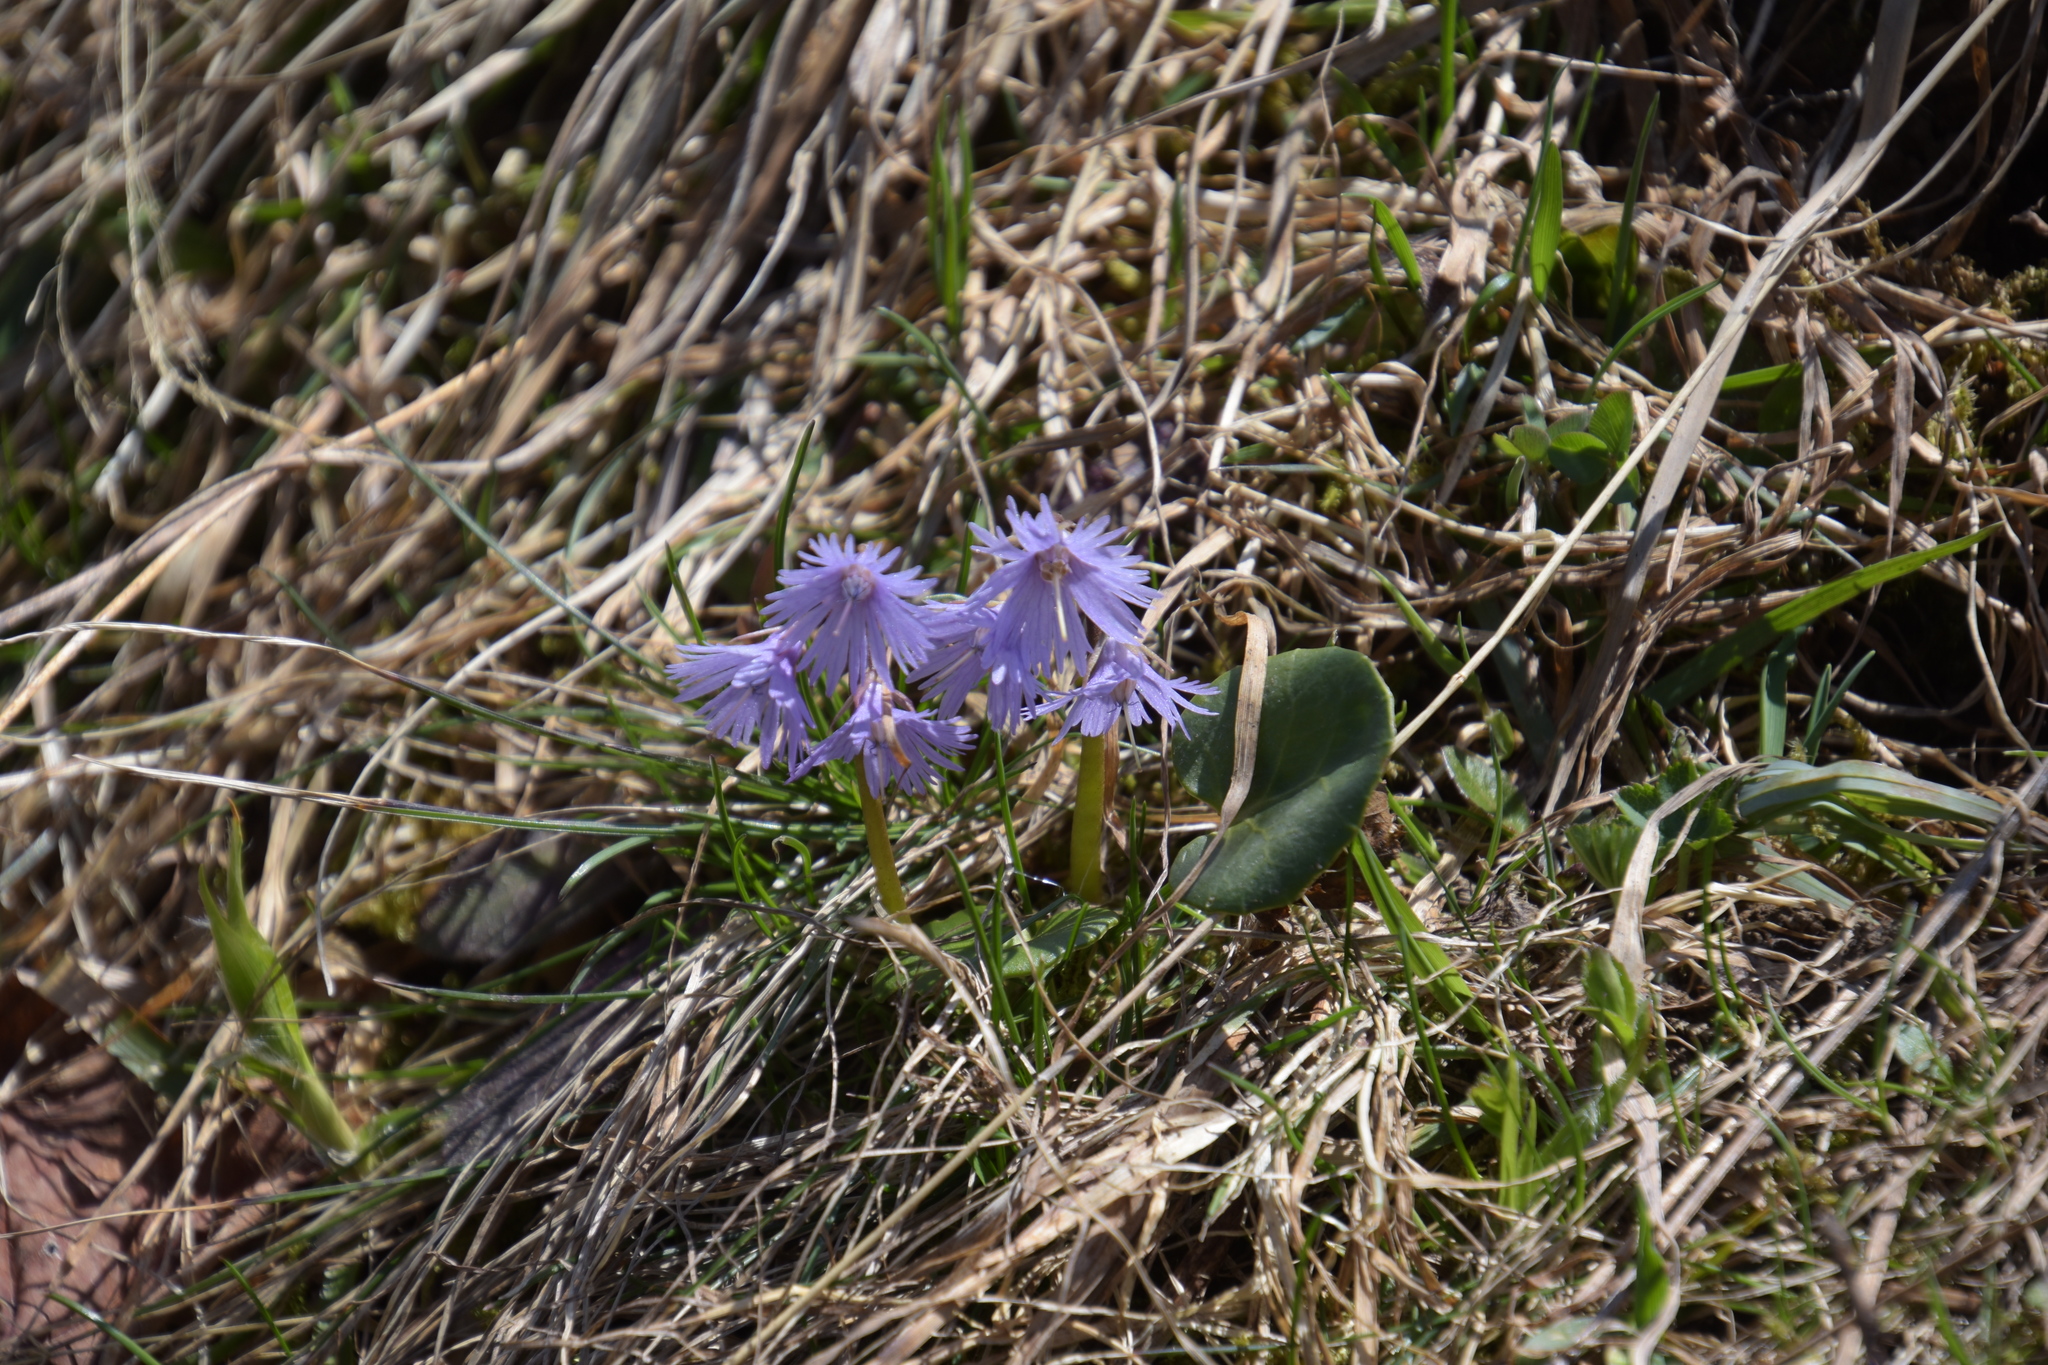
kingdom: Plantae
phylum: Tracheophyta
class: Magnoliopsida
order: Ericales
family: Primulaceae
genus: Soldanella
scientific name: Soldanella alpina
